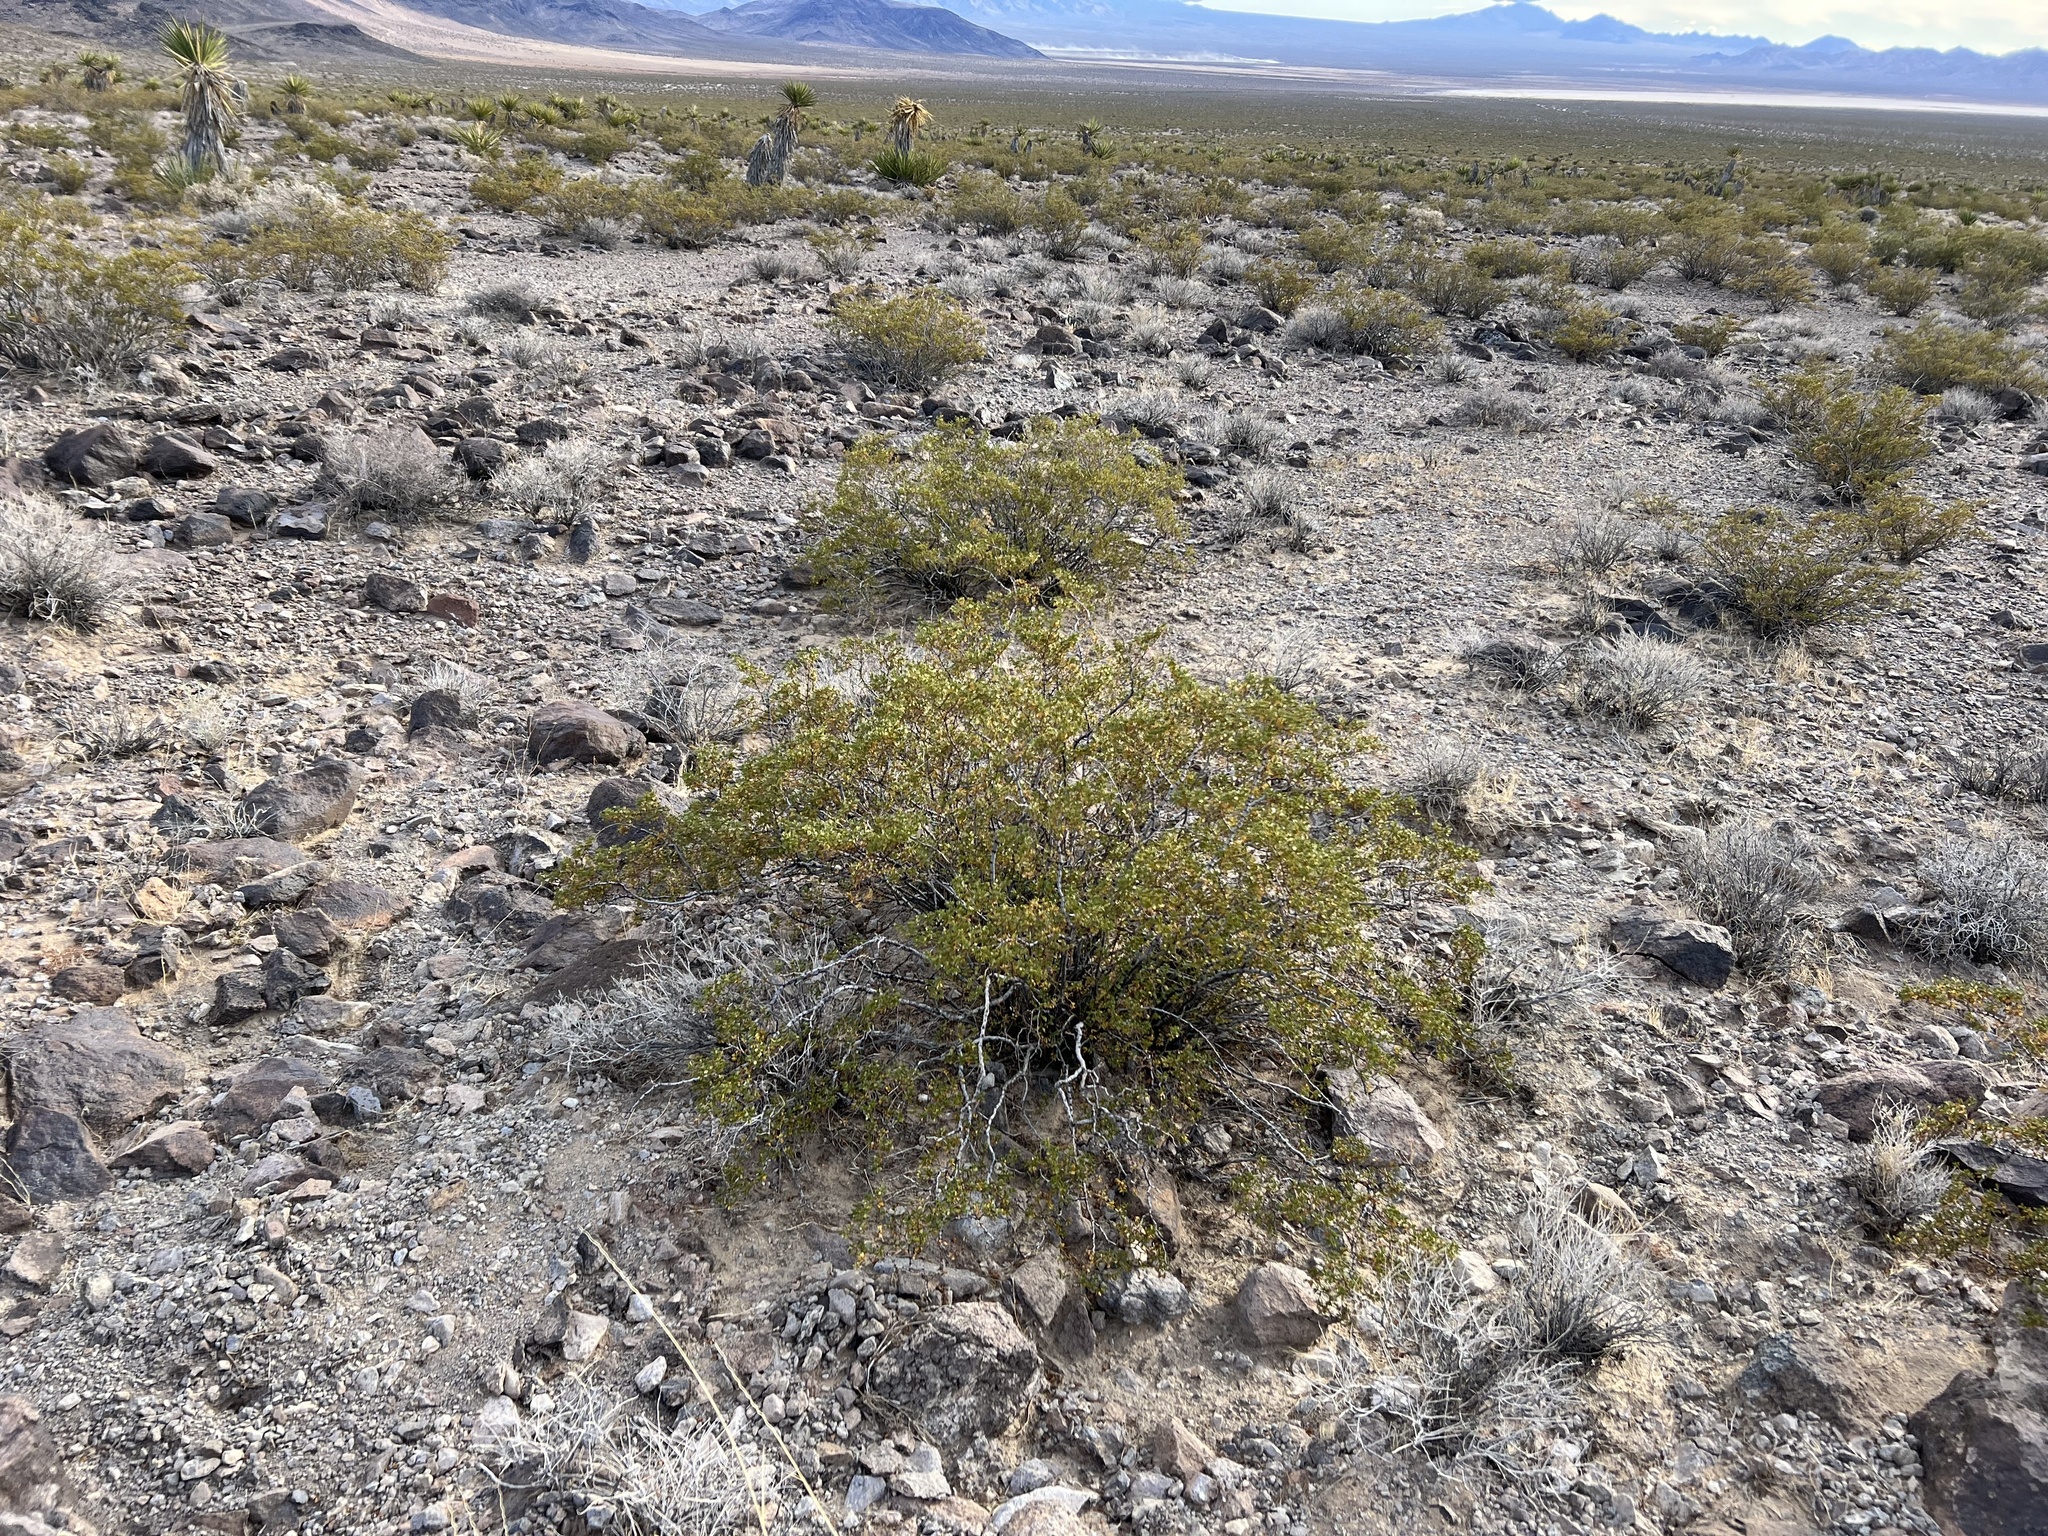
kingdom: Plantae
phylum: Tracheophyta
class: Magnoliopsida
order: Zygophyllales
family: Zygophyllaceae
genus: Larrea
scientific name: Larrea tridentata
